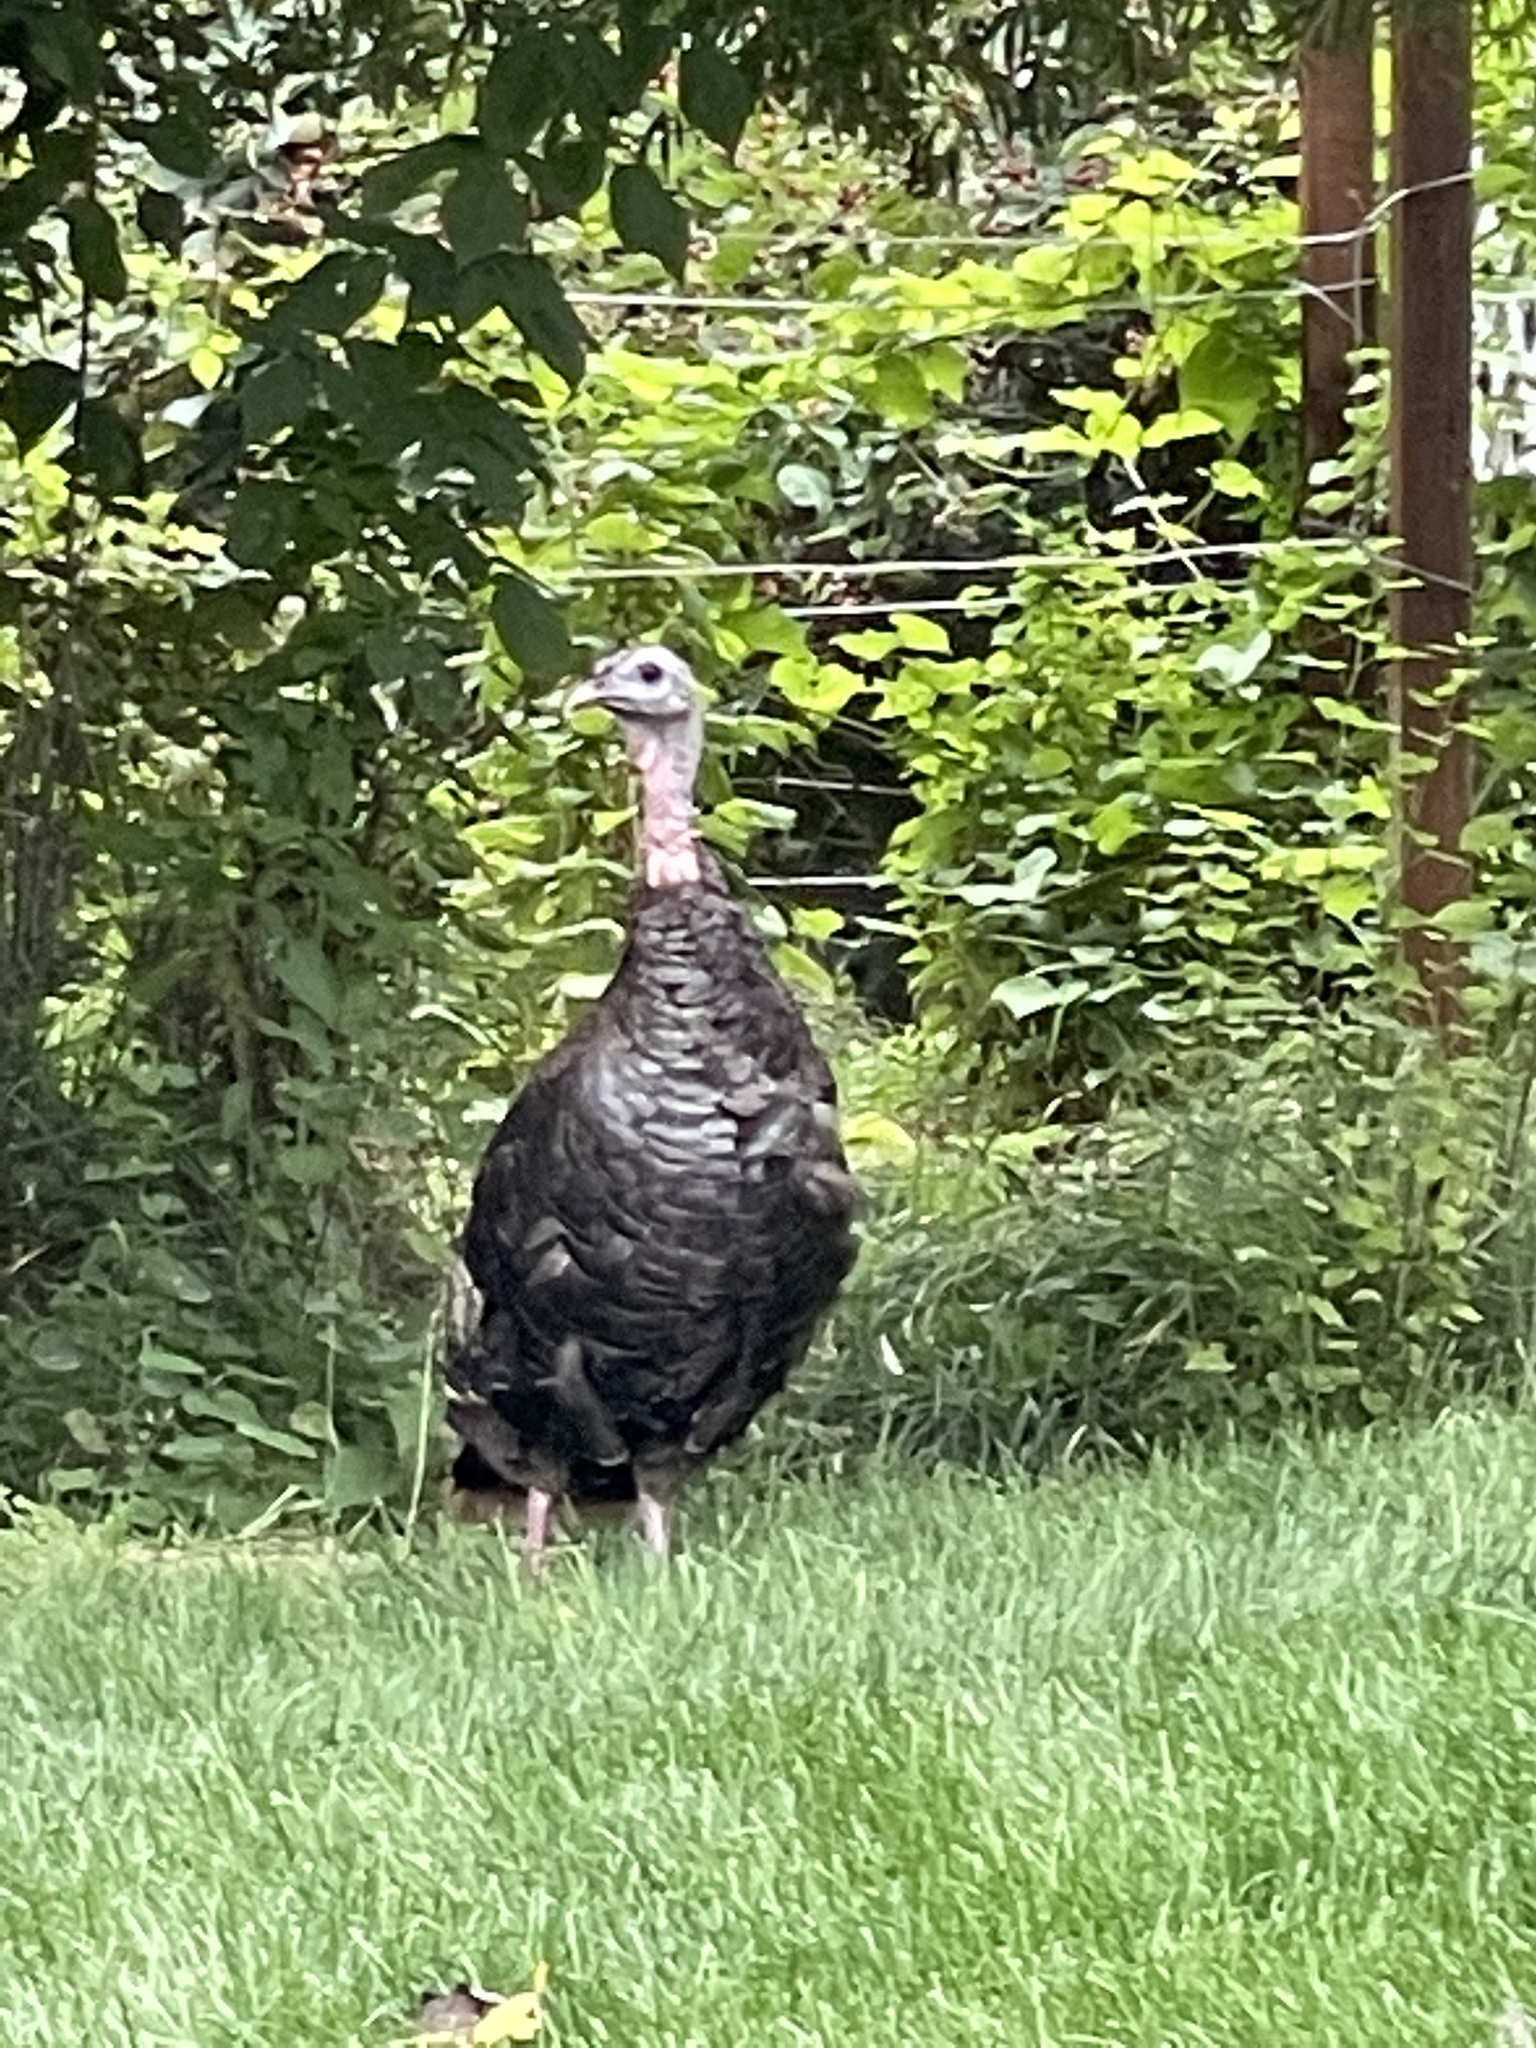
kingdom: Animalia
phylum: Chordata
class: Aves
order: Galliformes
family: Phasianidae
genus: Meleagris
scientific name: Meleagris gallopavo
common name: Wild turkey
